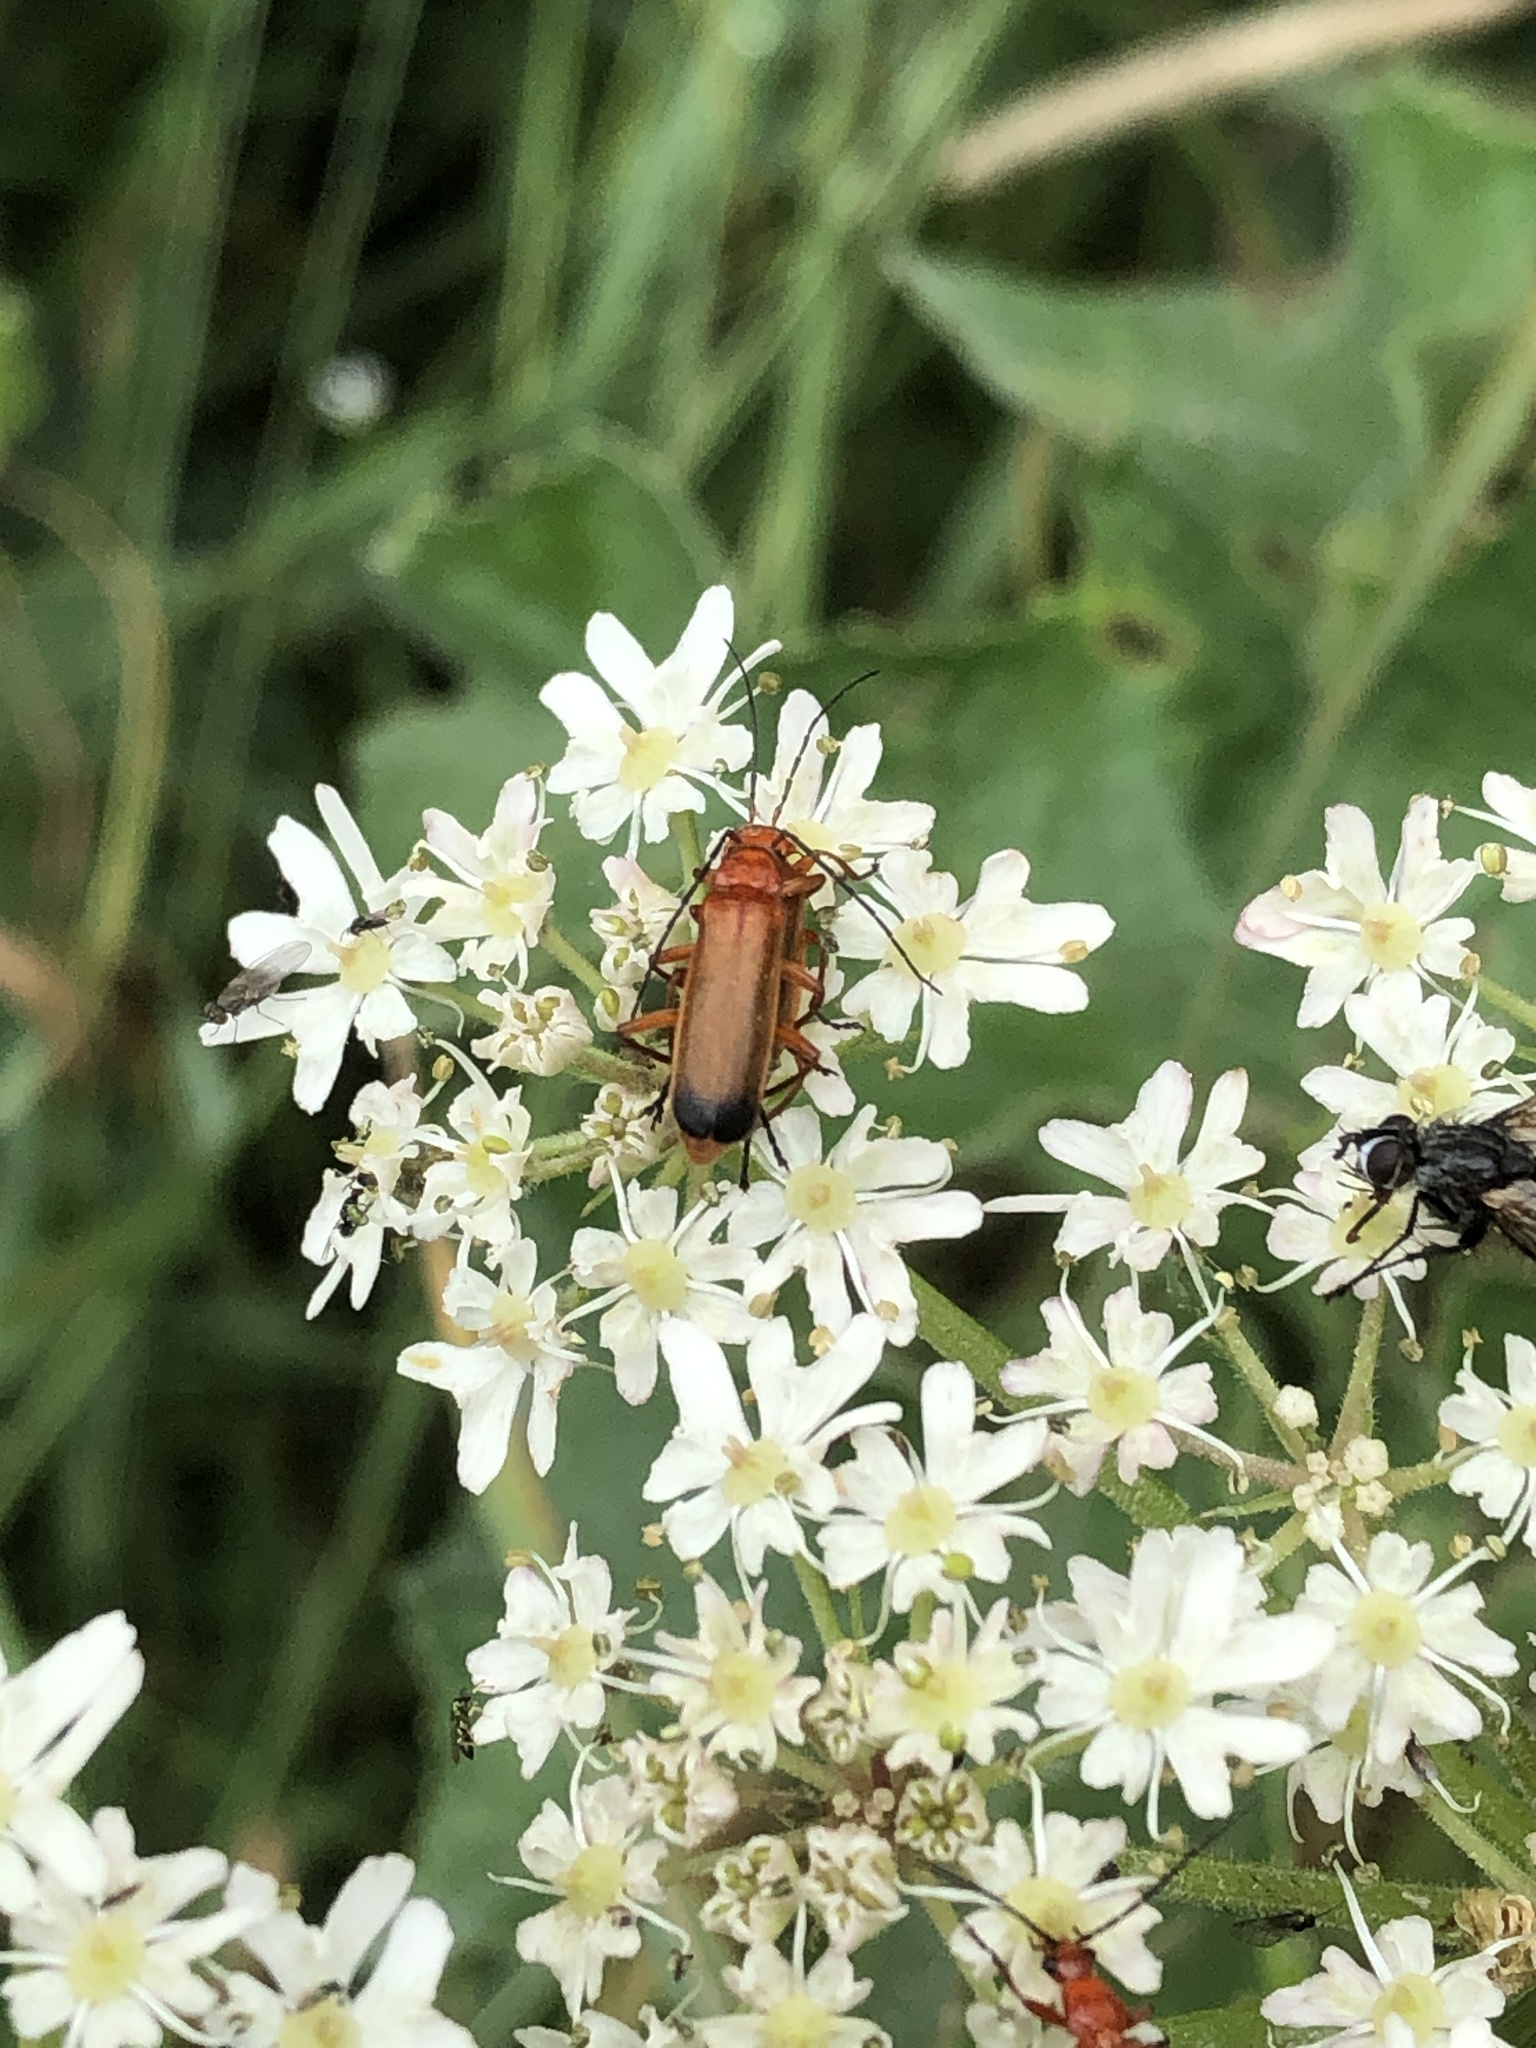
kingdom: Animalia
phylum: Arthropoda
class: Insecta
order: Coleoptera
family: Cantharidae
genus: Rhagonycha
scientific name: Rhagonycha fulva
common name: Common red soldier beetle
